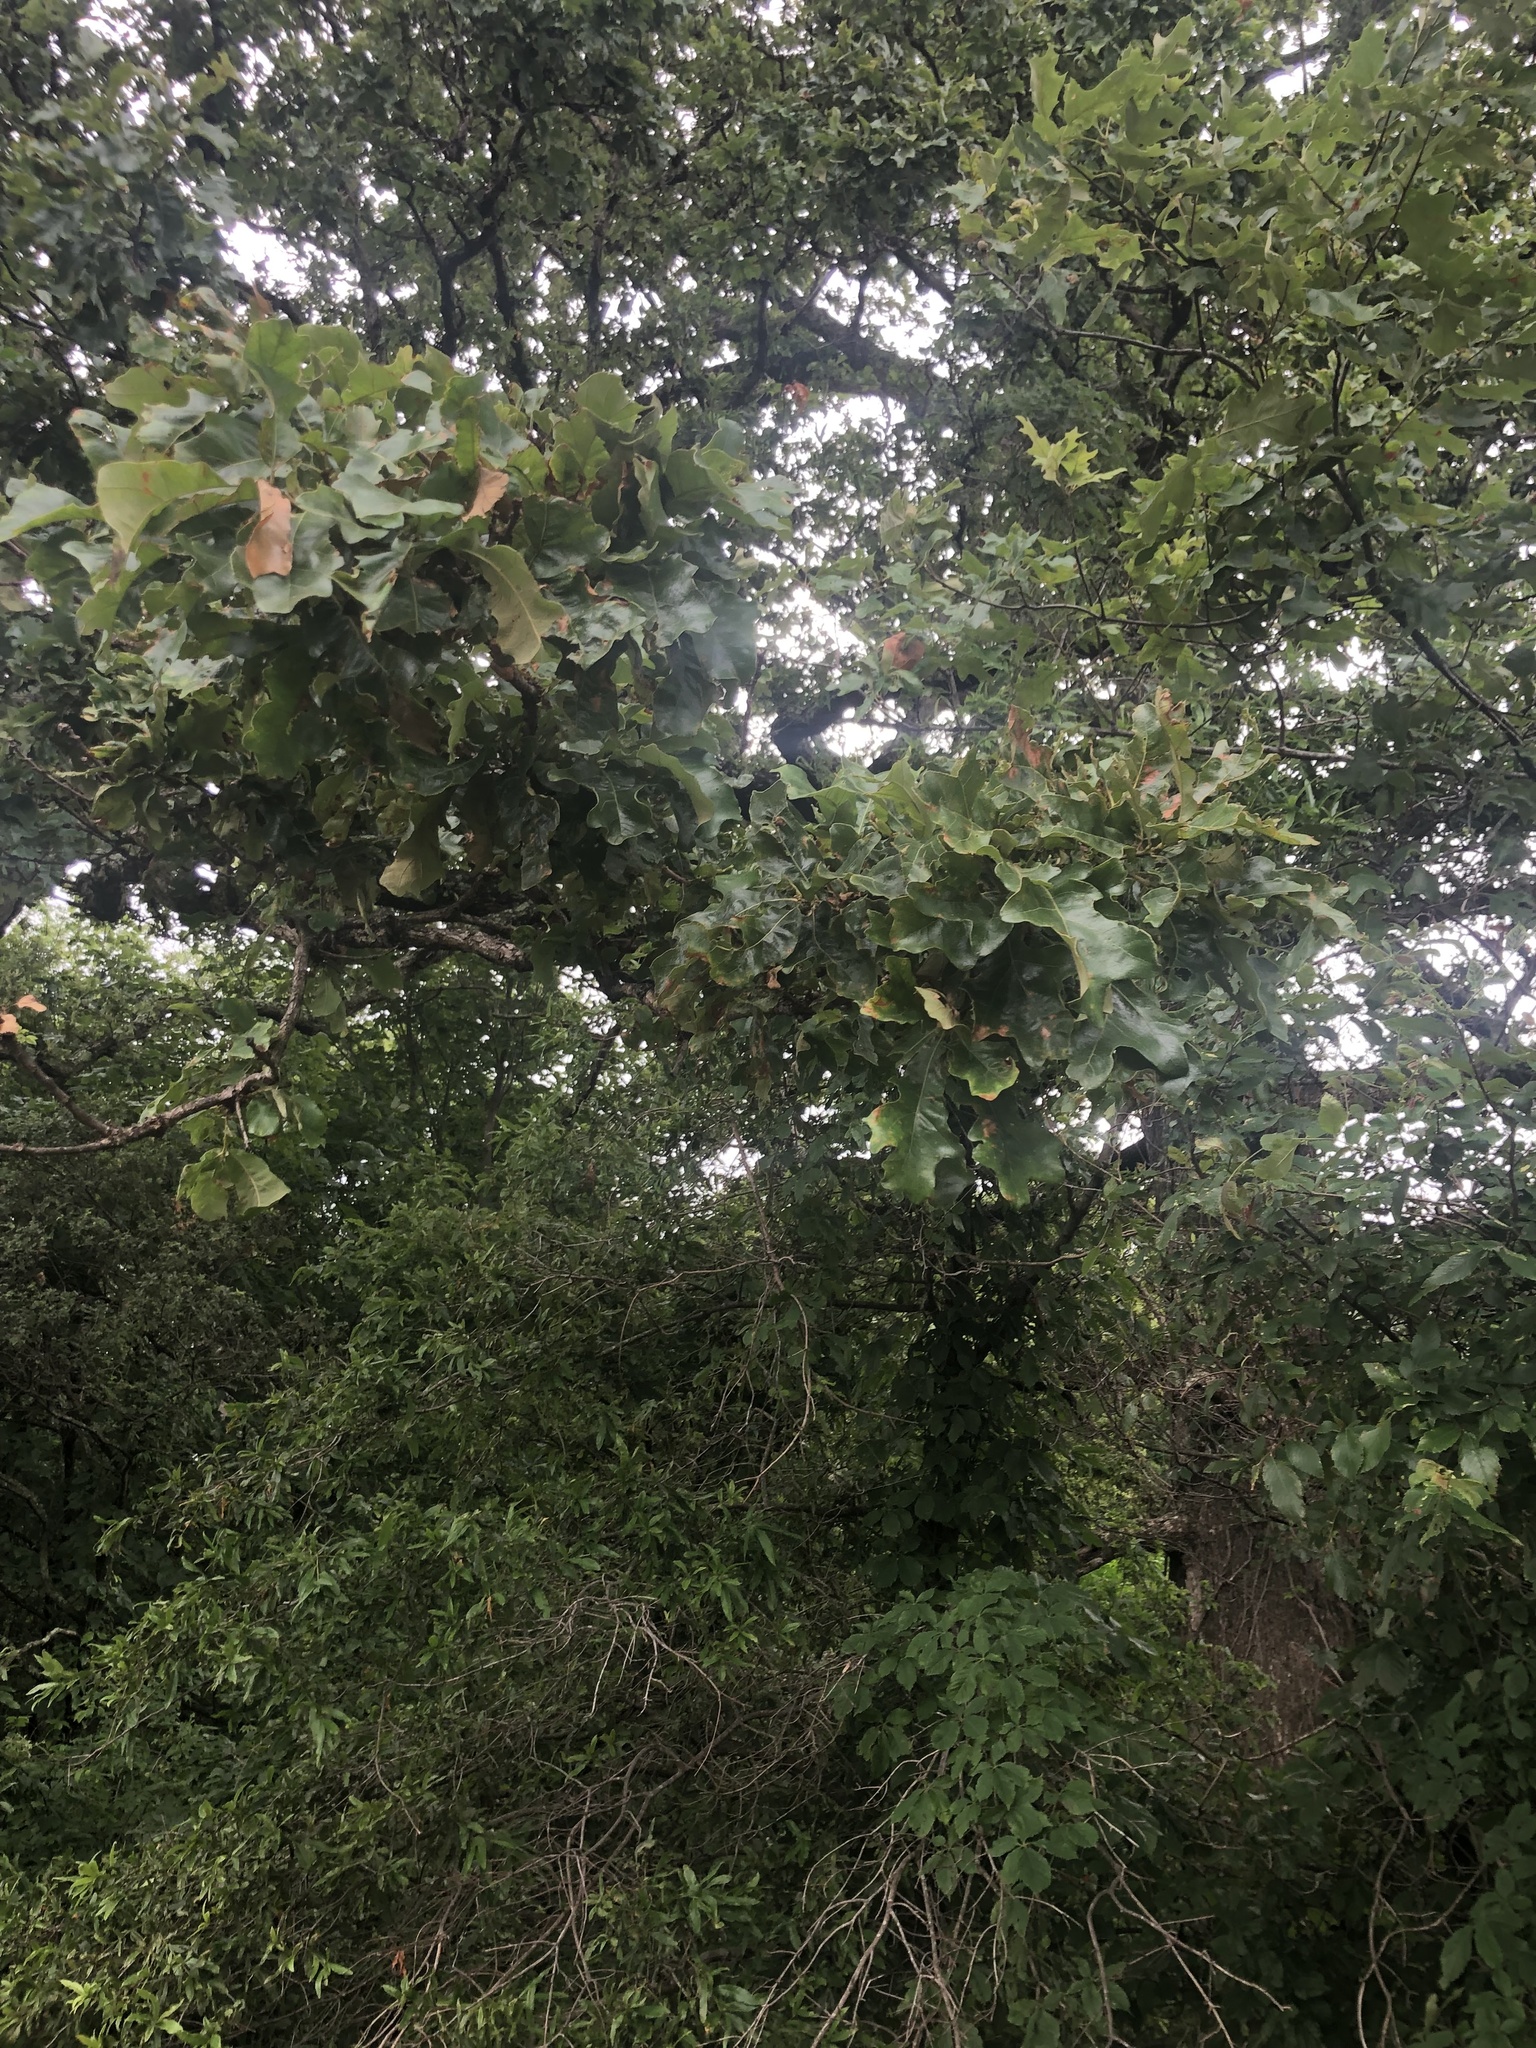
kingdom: Plantae
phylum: Tracheophyta
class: Magnoliopsida
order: Fagales
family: Fagaceae
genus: Quercus
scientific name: Quercus similis
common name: Delta post oak
